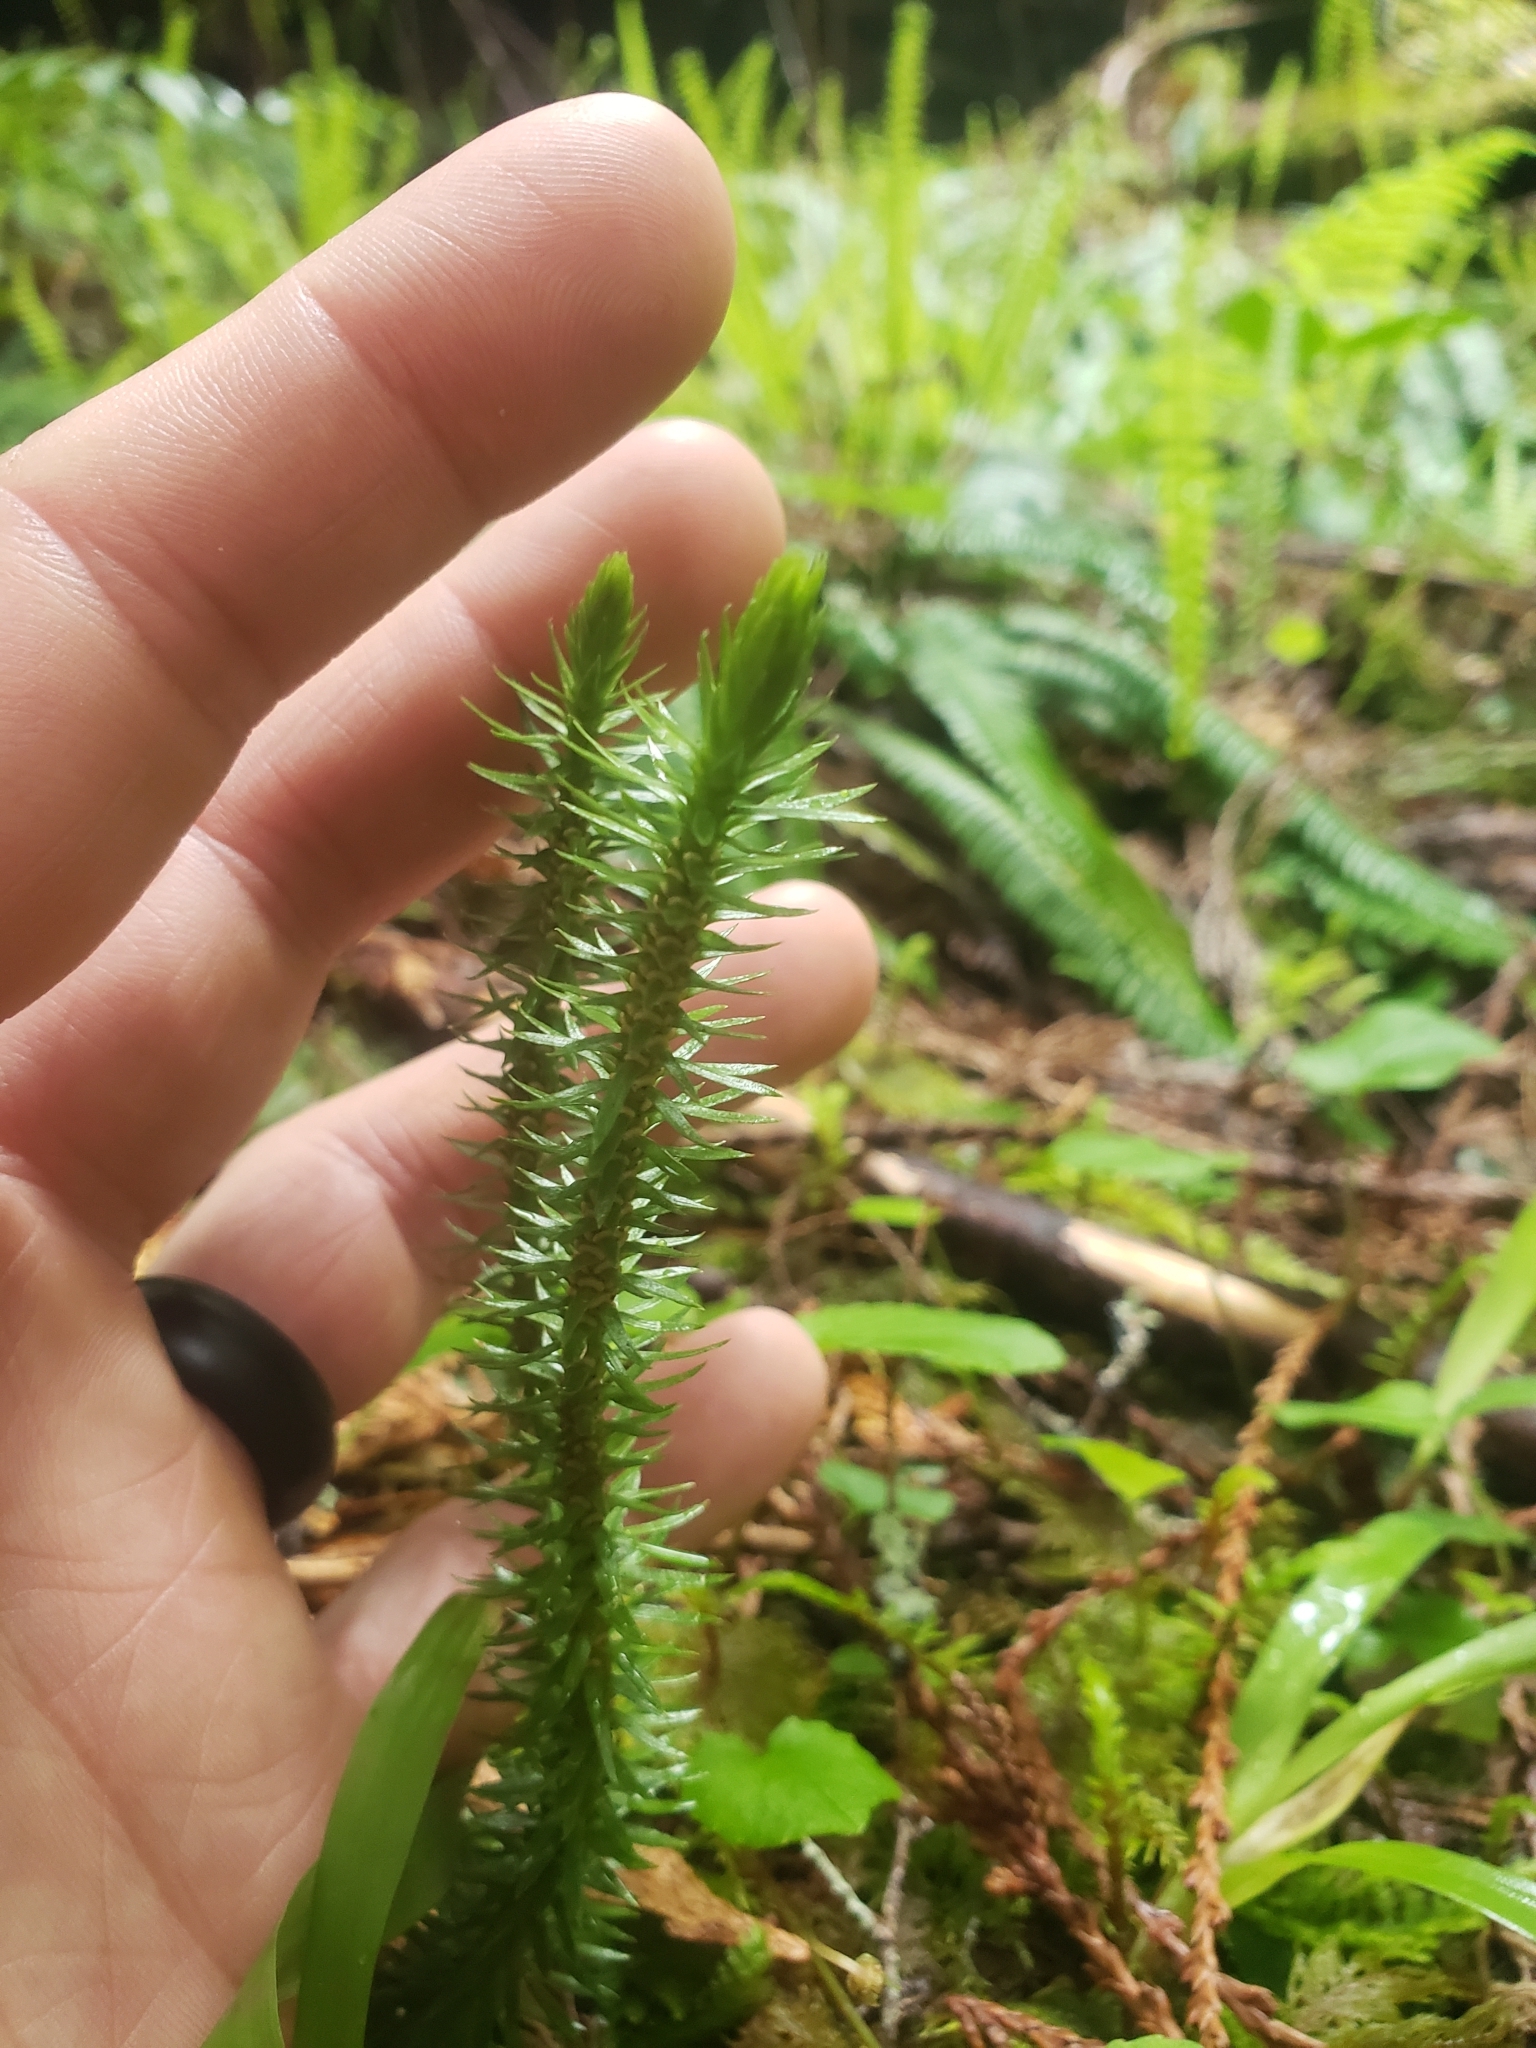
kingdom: Plantae
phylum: Tracheophyta
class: Lycopodiopsida
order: Lycopodiales
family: Lycopodiaceae
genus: Huperzia
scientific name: Huperzia occidentalis
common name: Western clubmoss
